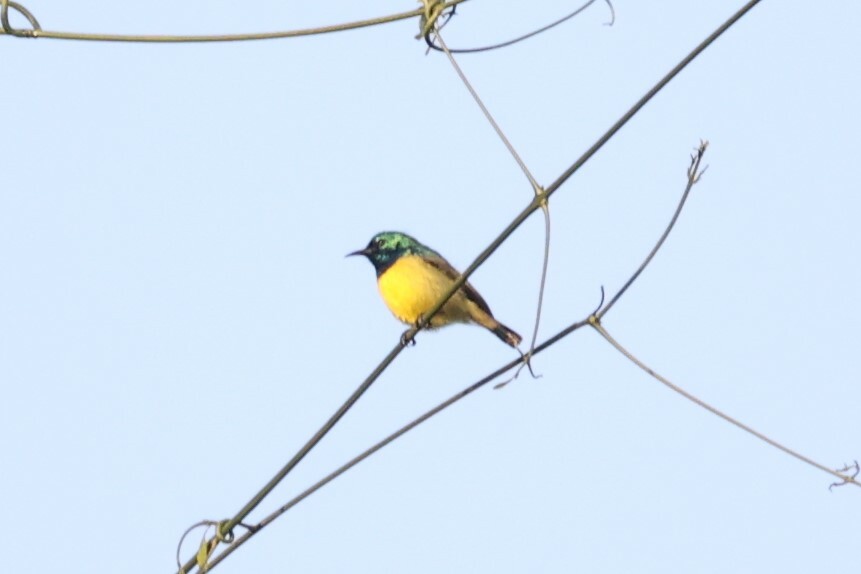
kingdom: Animalia
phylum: Chordata
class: Aves
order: Passeriformes
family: Nectariniidae
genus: Hedydipna
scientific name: Hedydipna collaris
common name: Collared sunbird
